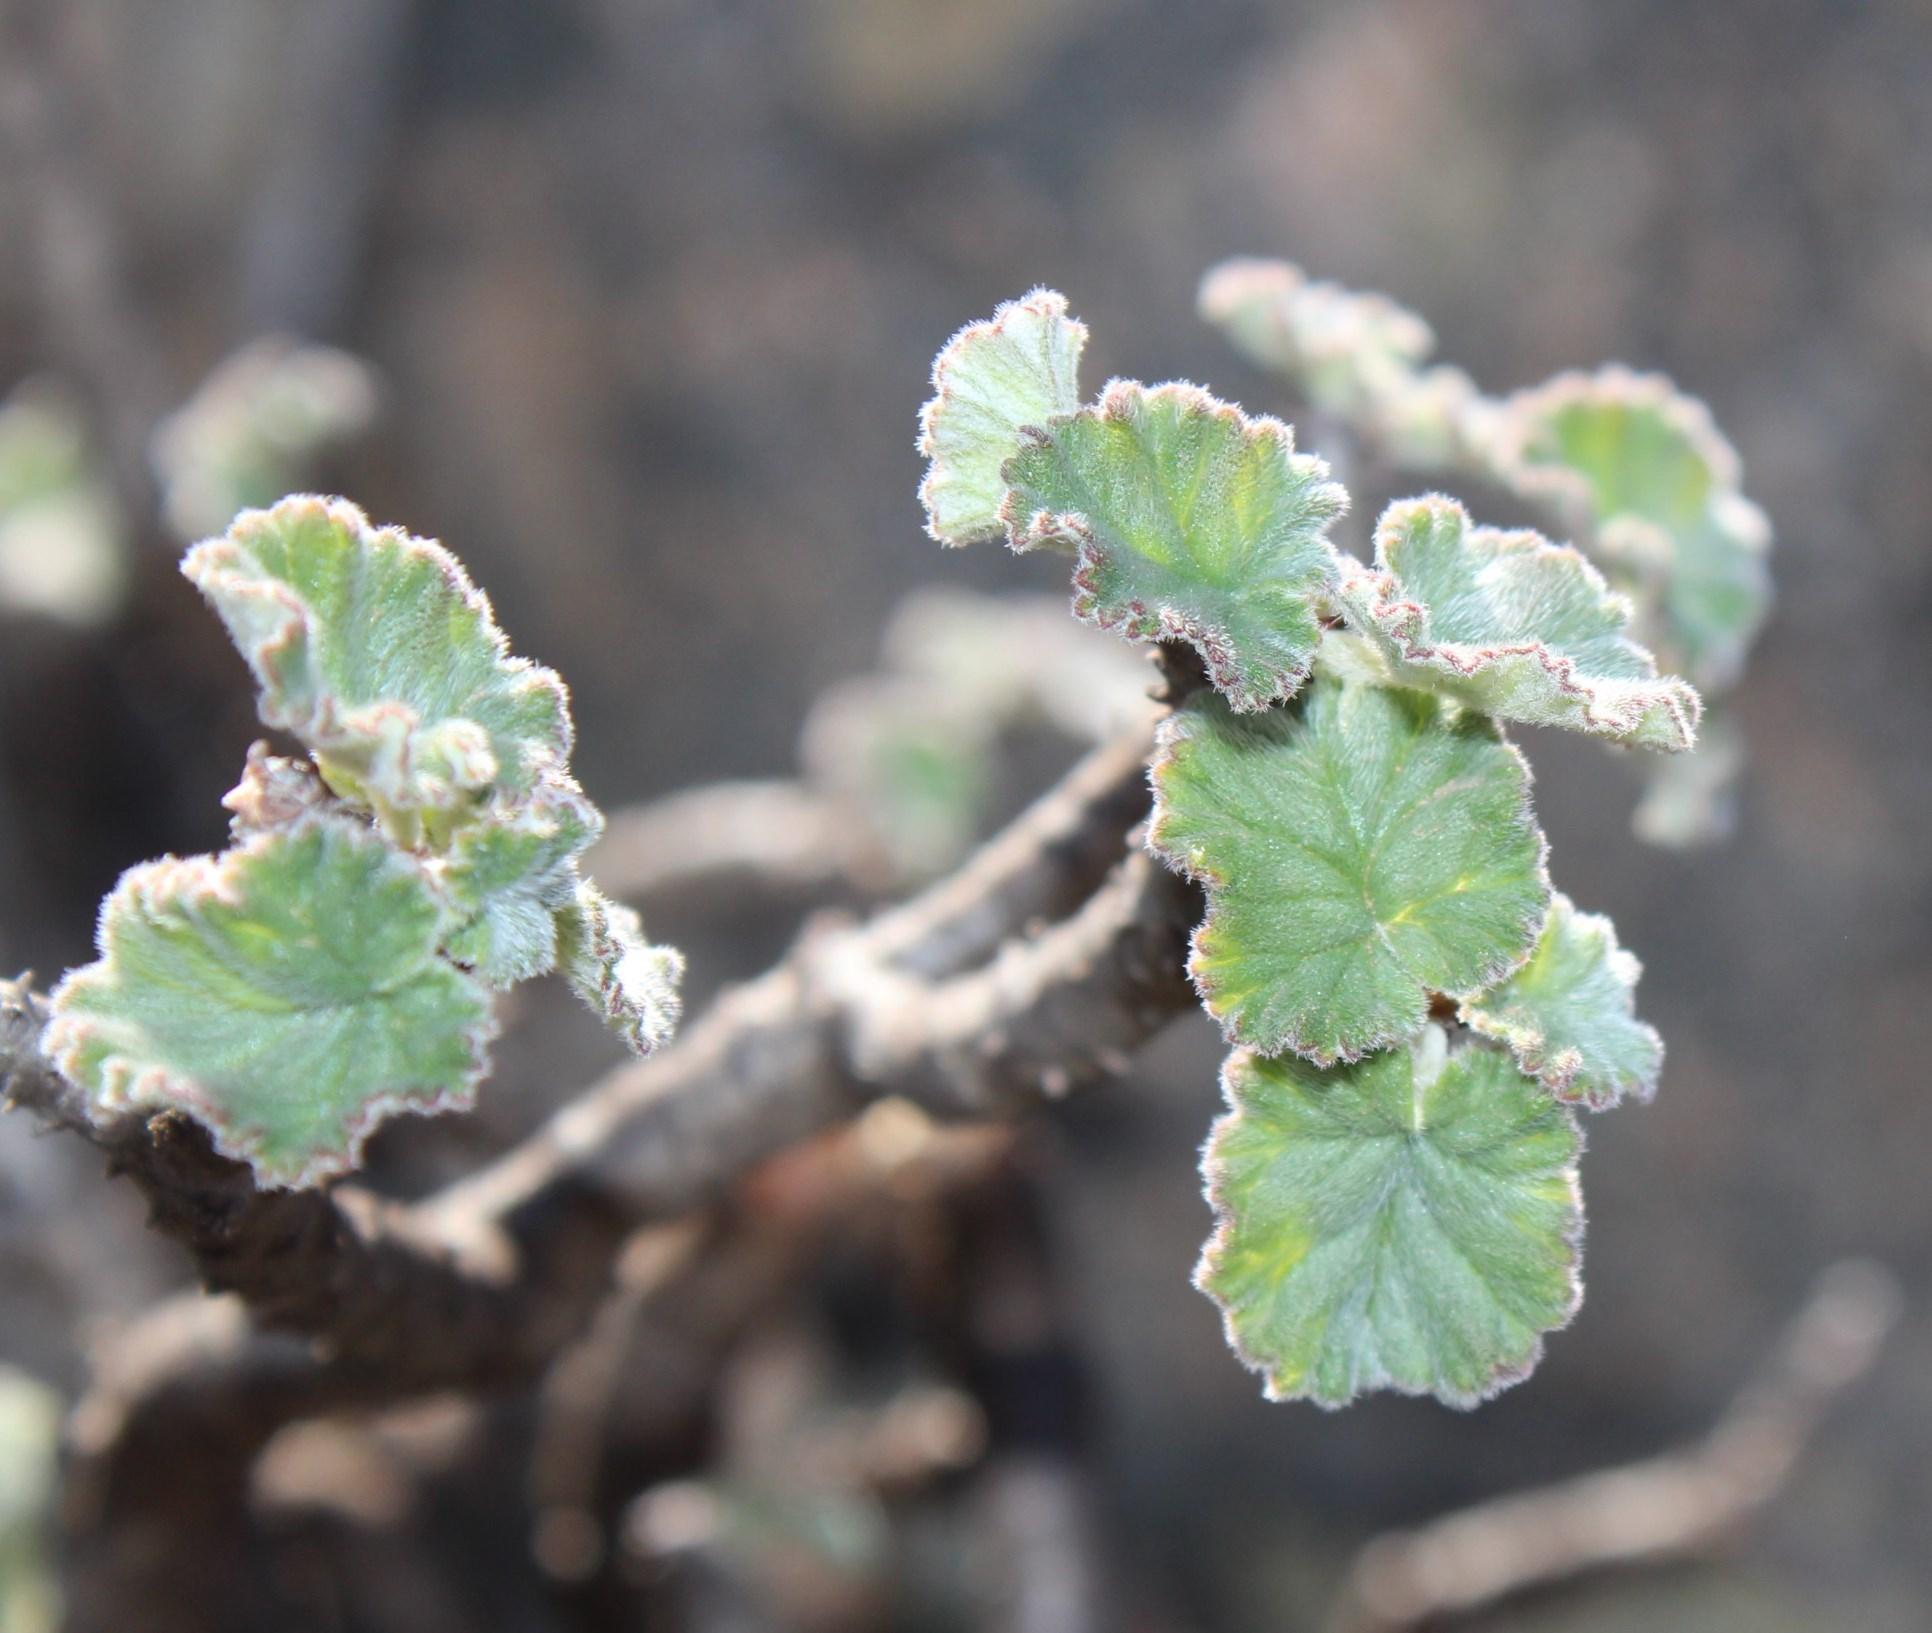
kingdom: Plantae
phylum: Tracheophyta
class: Magnoliopsida
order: Geraniales
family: Geraniaceae
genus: Pelargonium
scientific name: Pelargonium echinatum
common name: Cactus geranium
